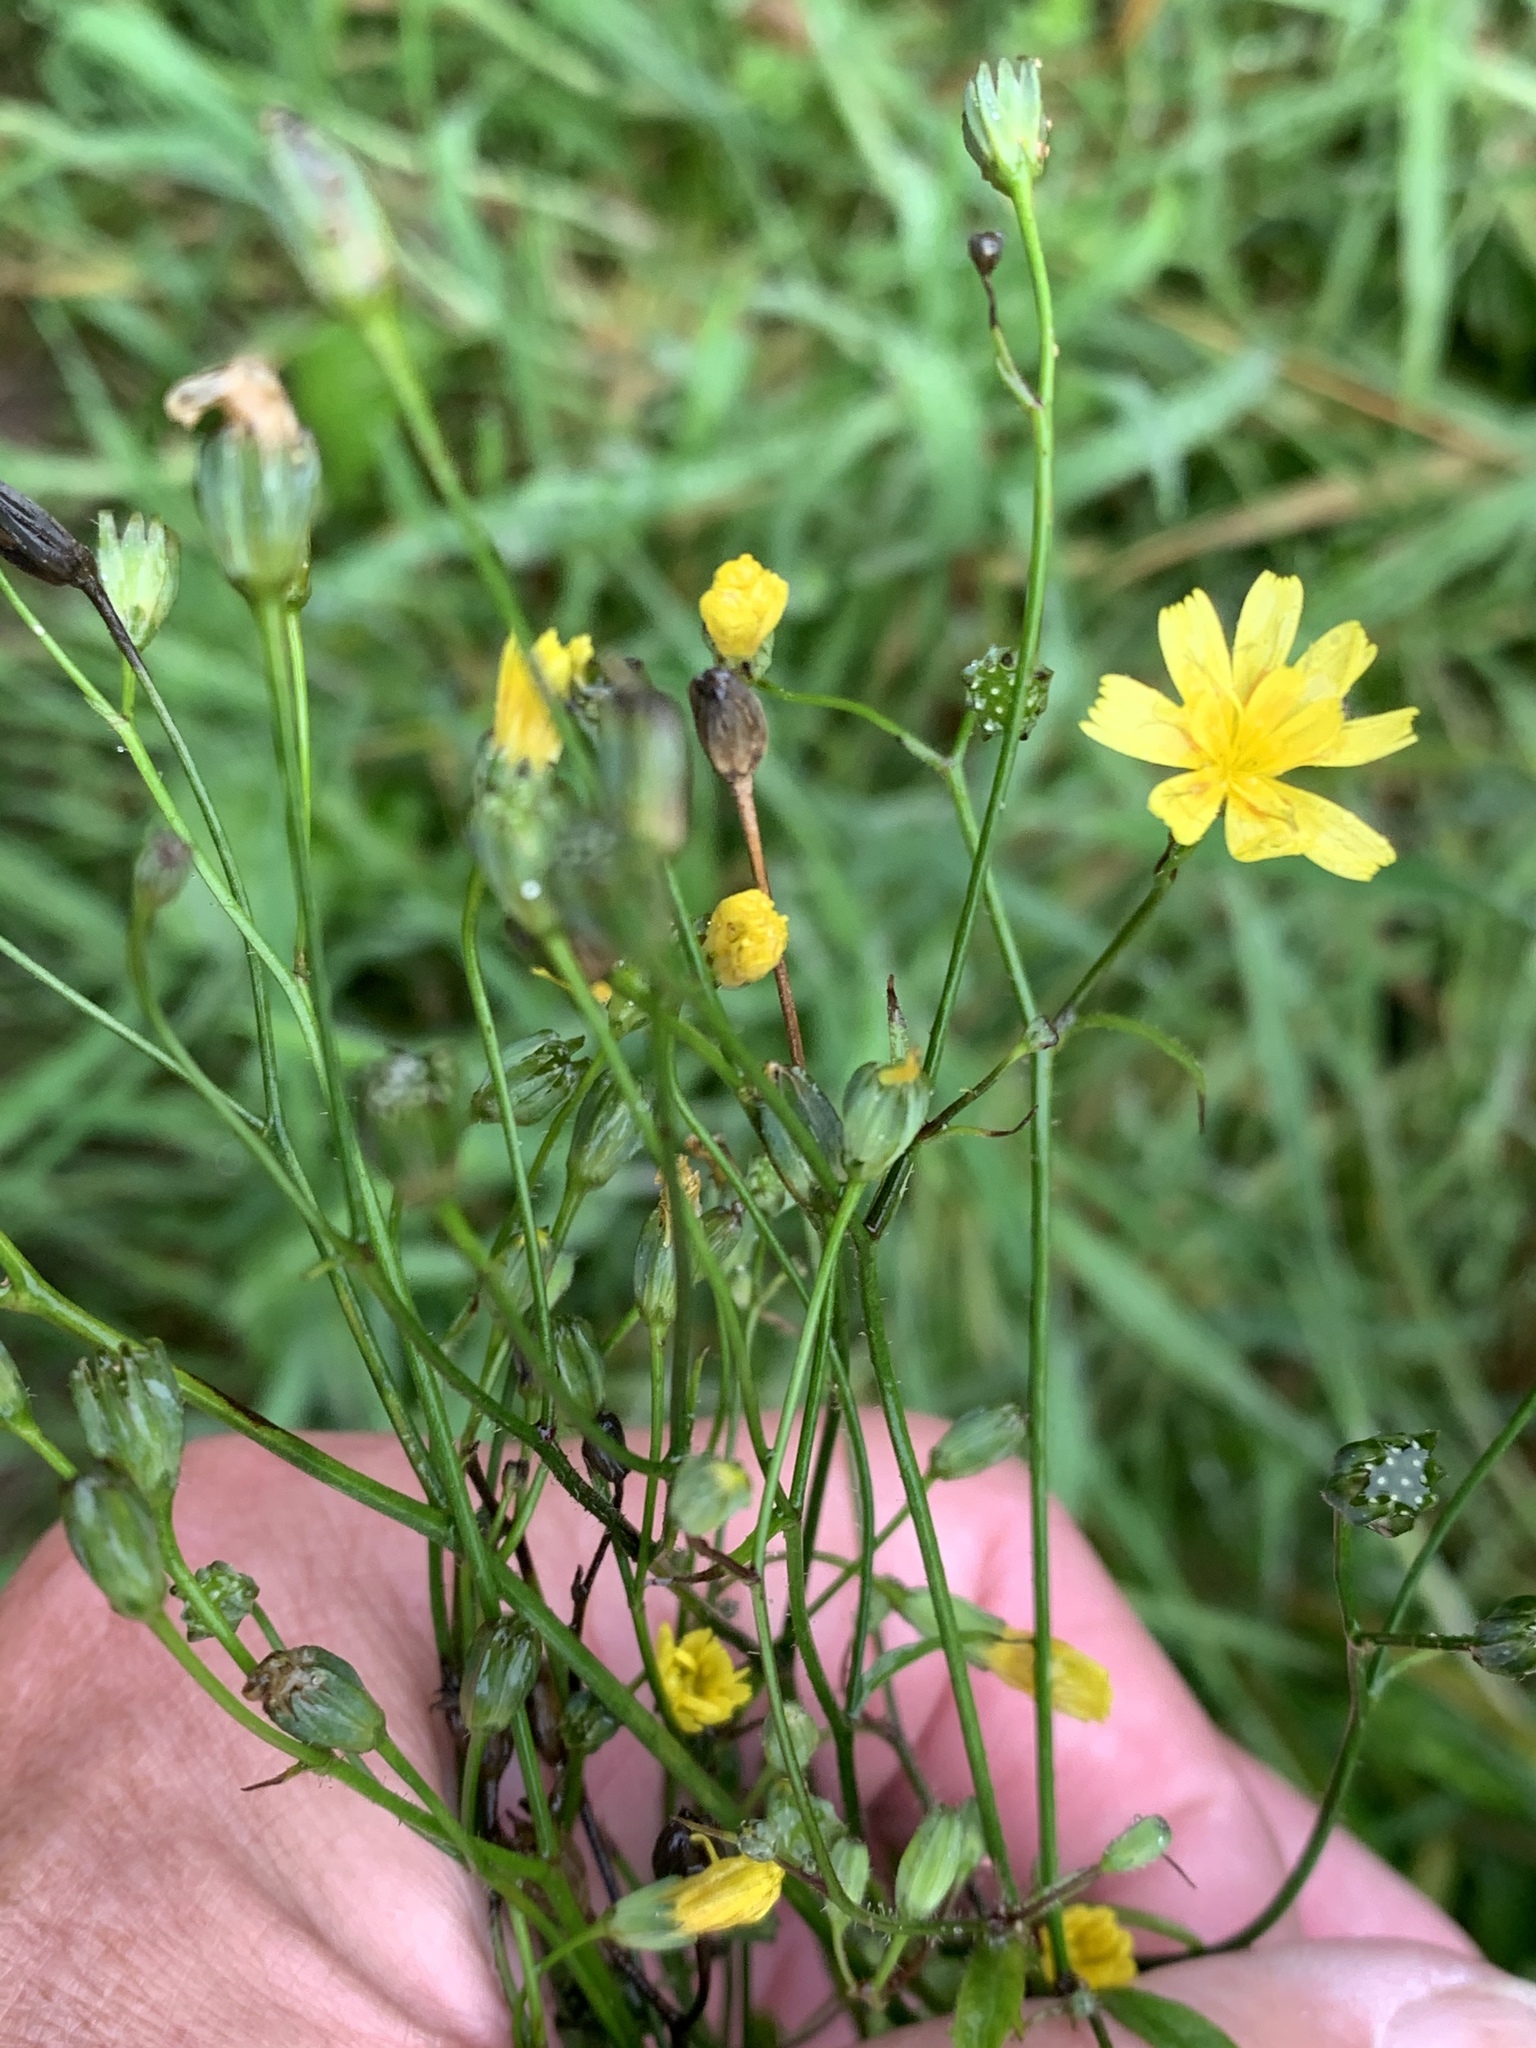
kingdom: Plantae
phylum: Tracheophyta
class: Magnoliopsida
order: Asterales
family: Asteraceae
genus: Lapsana
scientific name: Lapsana communis
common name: Nipplewort
